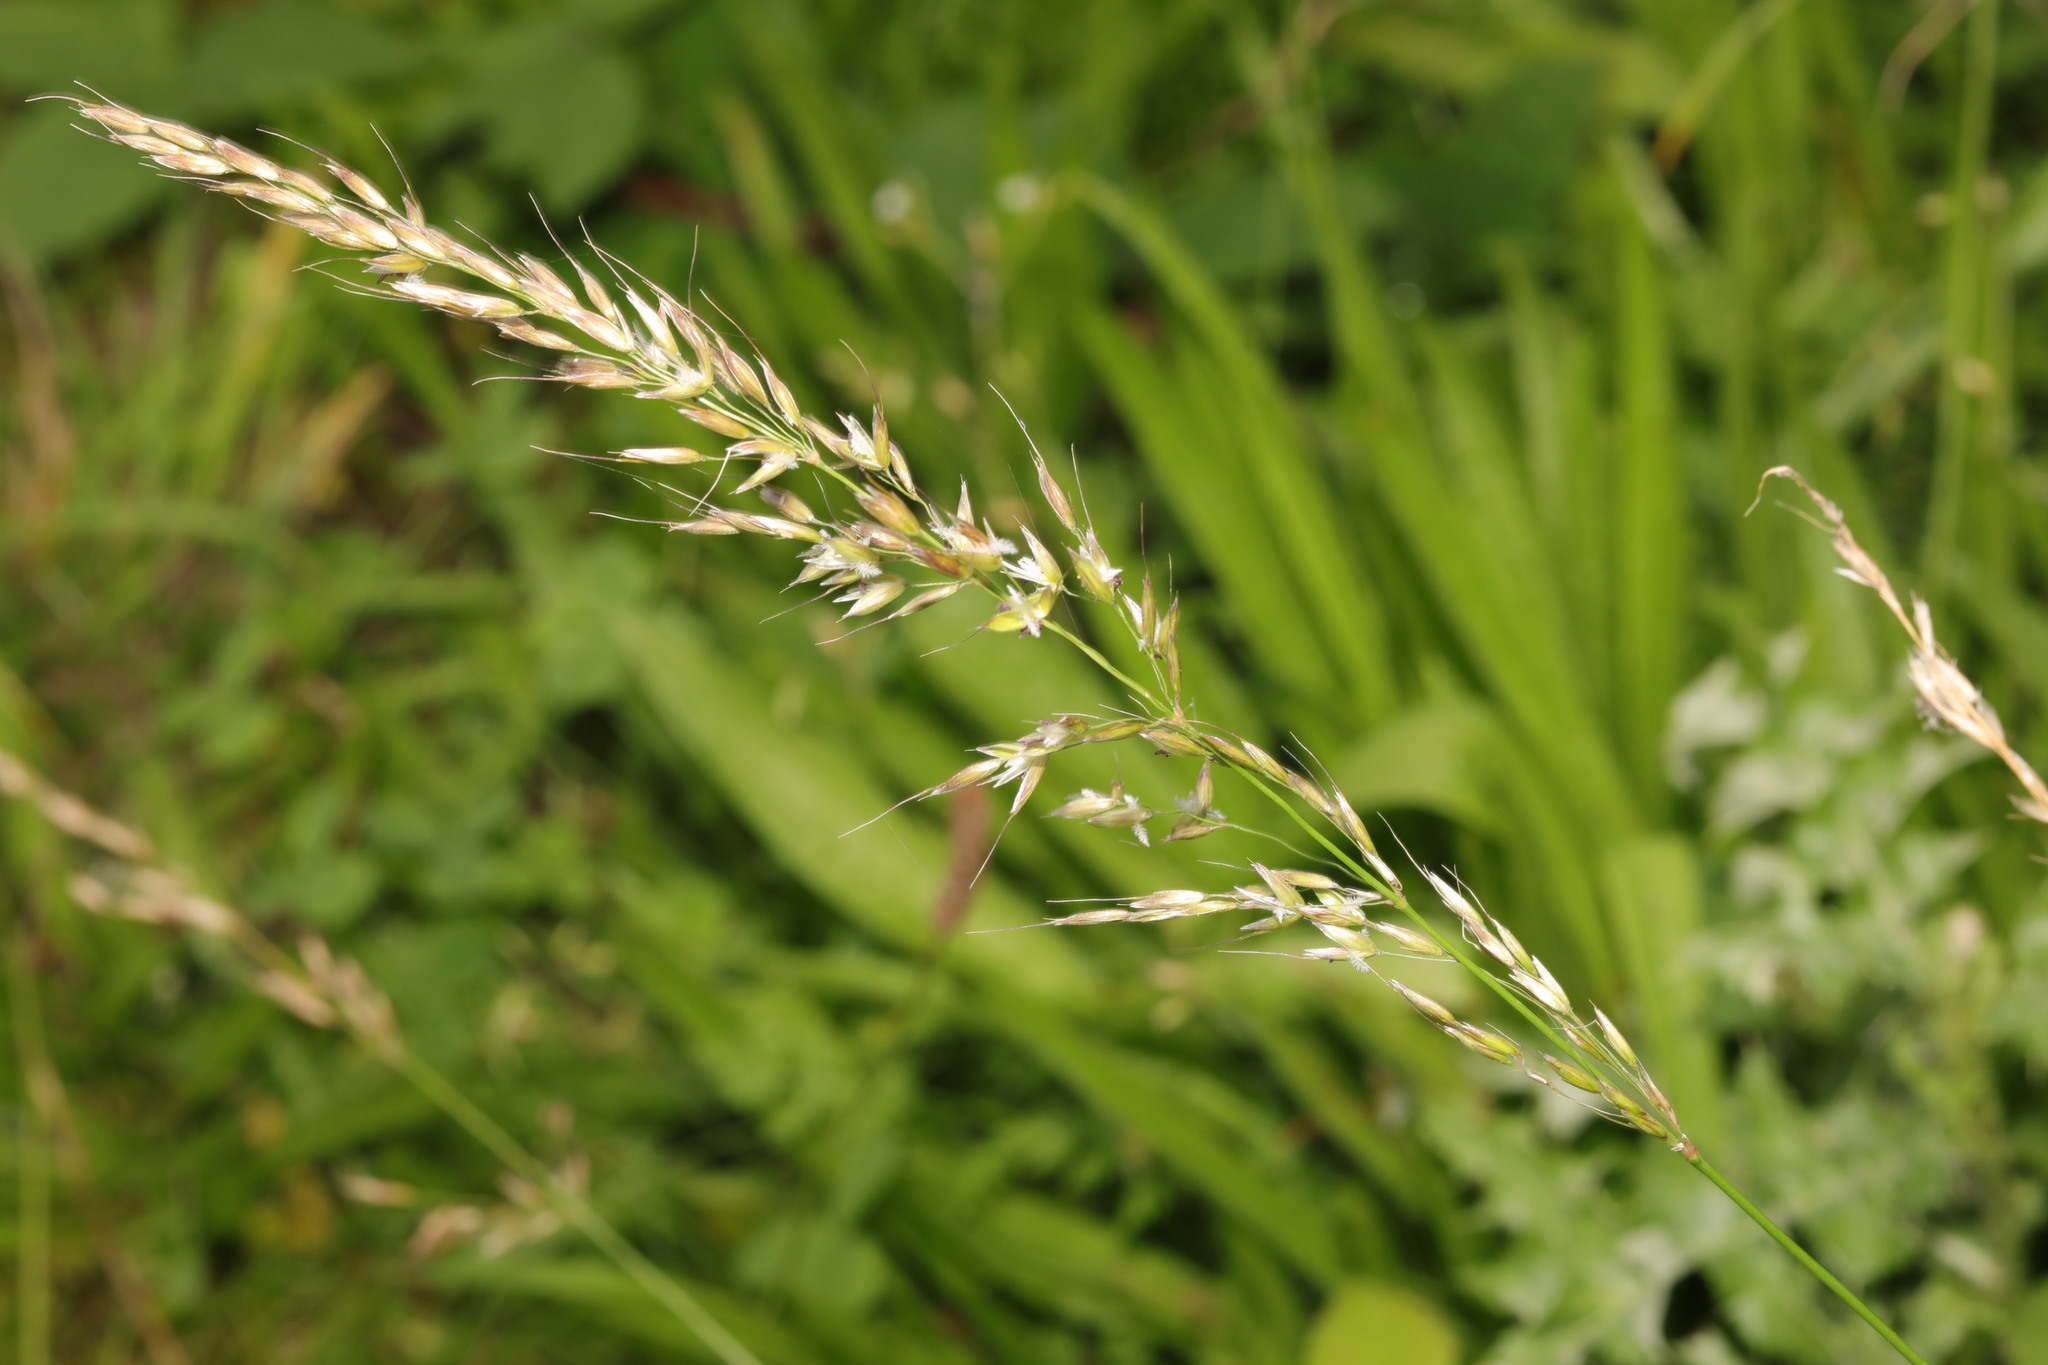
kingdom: Plantae
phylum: Tracheophyta
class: Liliopsida
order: Poales
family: Poaceae
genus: Arrhenatherum
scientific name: Arrhenatherum elatius
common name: Tall oatgrass
